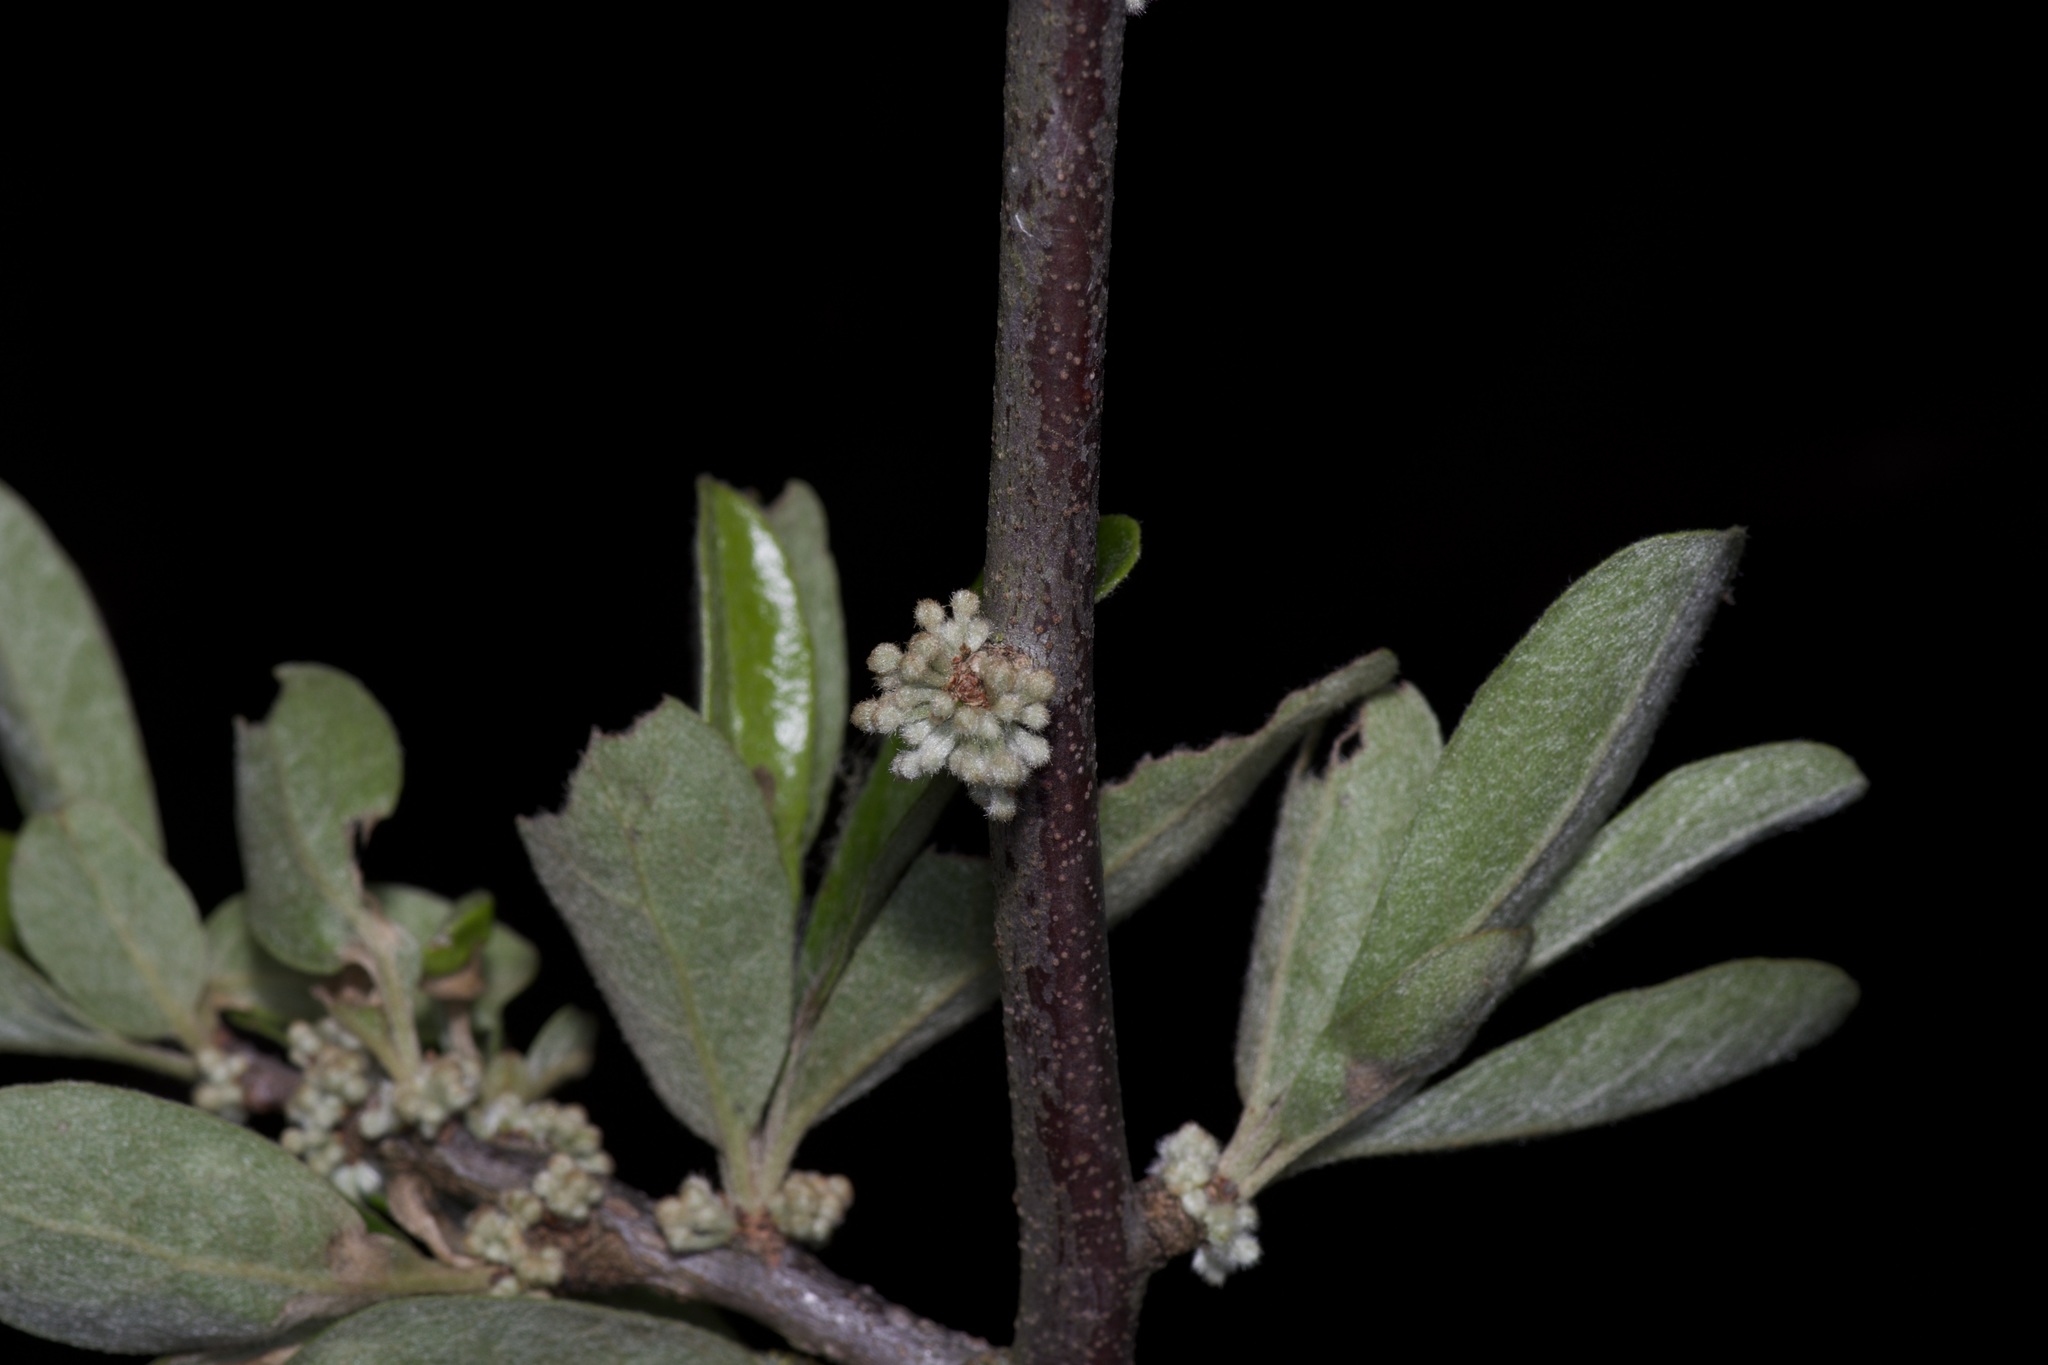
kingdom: Plantae
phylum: Tracheophyta
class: Magnoliopsida
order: Ericales
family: Sapotaceae
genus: Sideroxylon
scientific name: Sideroxylon lanuginosum
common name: Chittamwood
